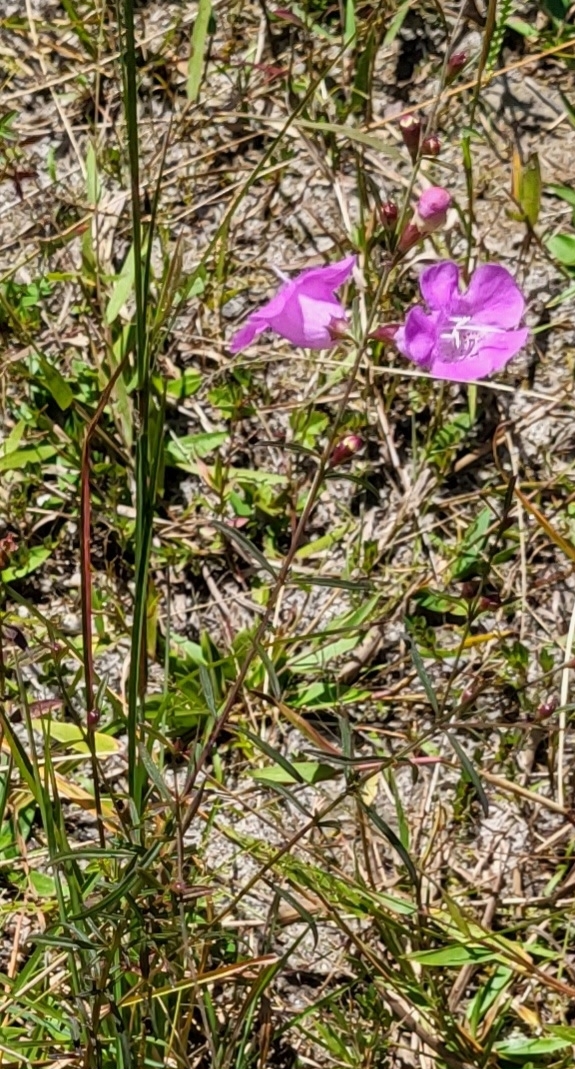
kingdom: Plantae
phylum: Tracheophyta
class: Magnoliopsida
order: Lamiales
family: Orobanchaceae
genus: Agalinis
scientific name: Agalinis purpurea
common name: Purple false foxglove
